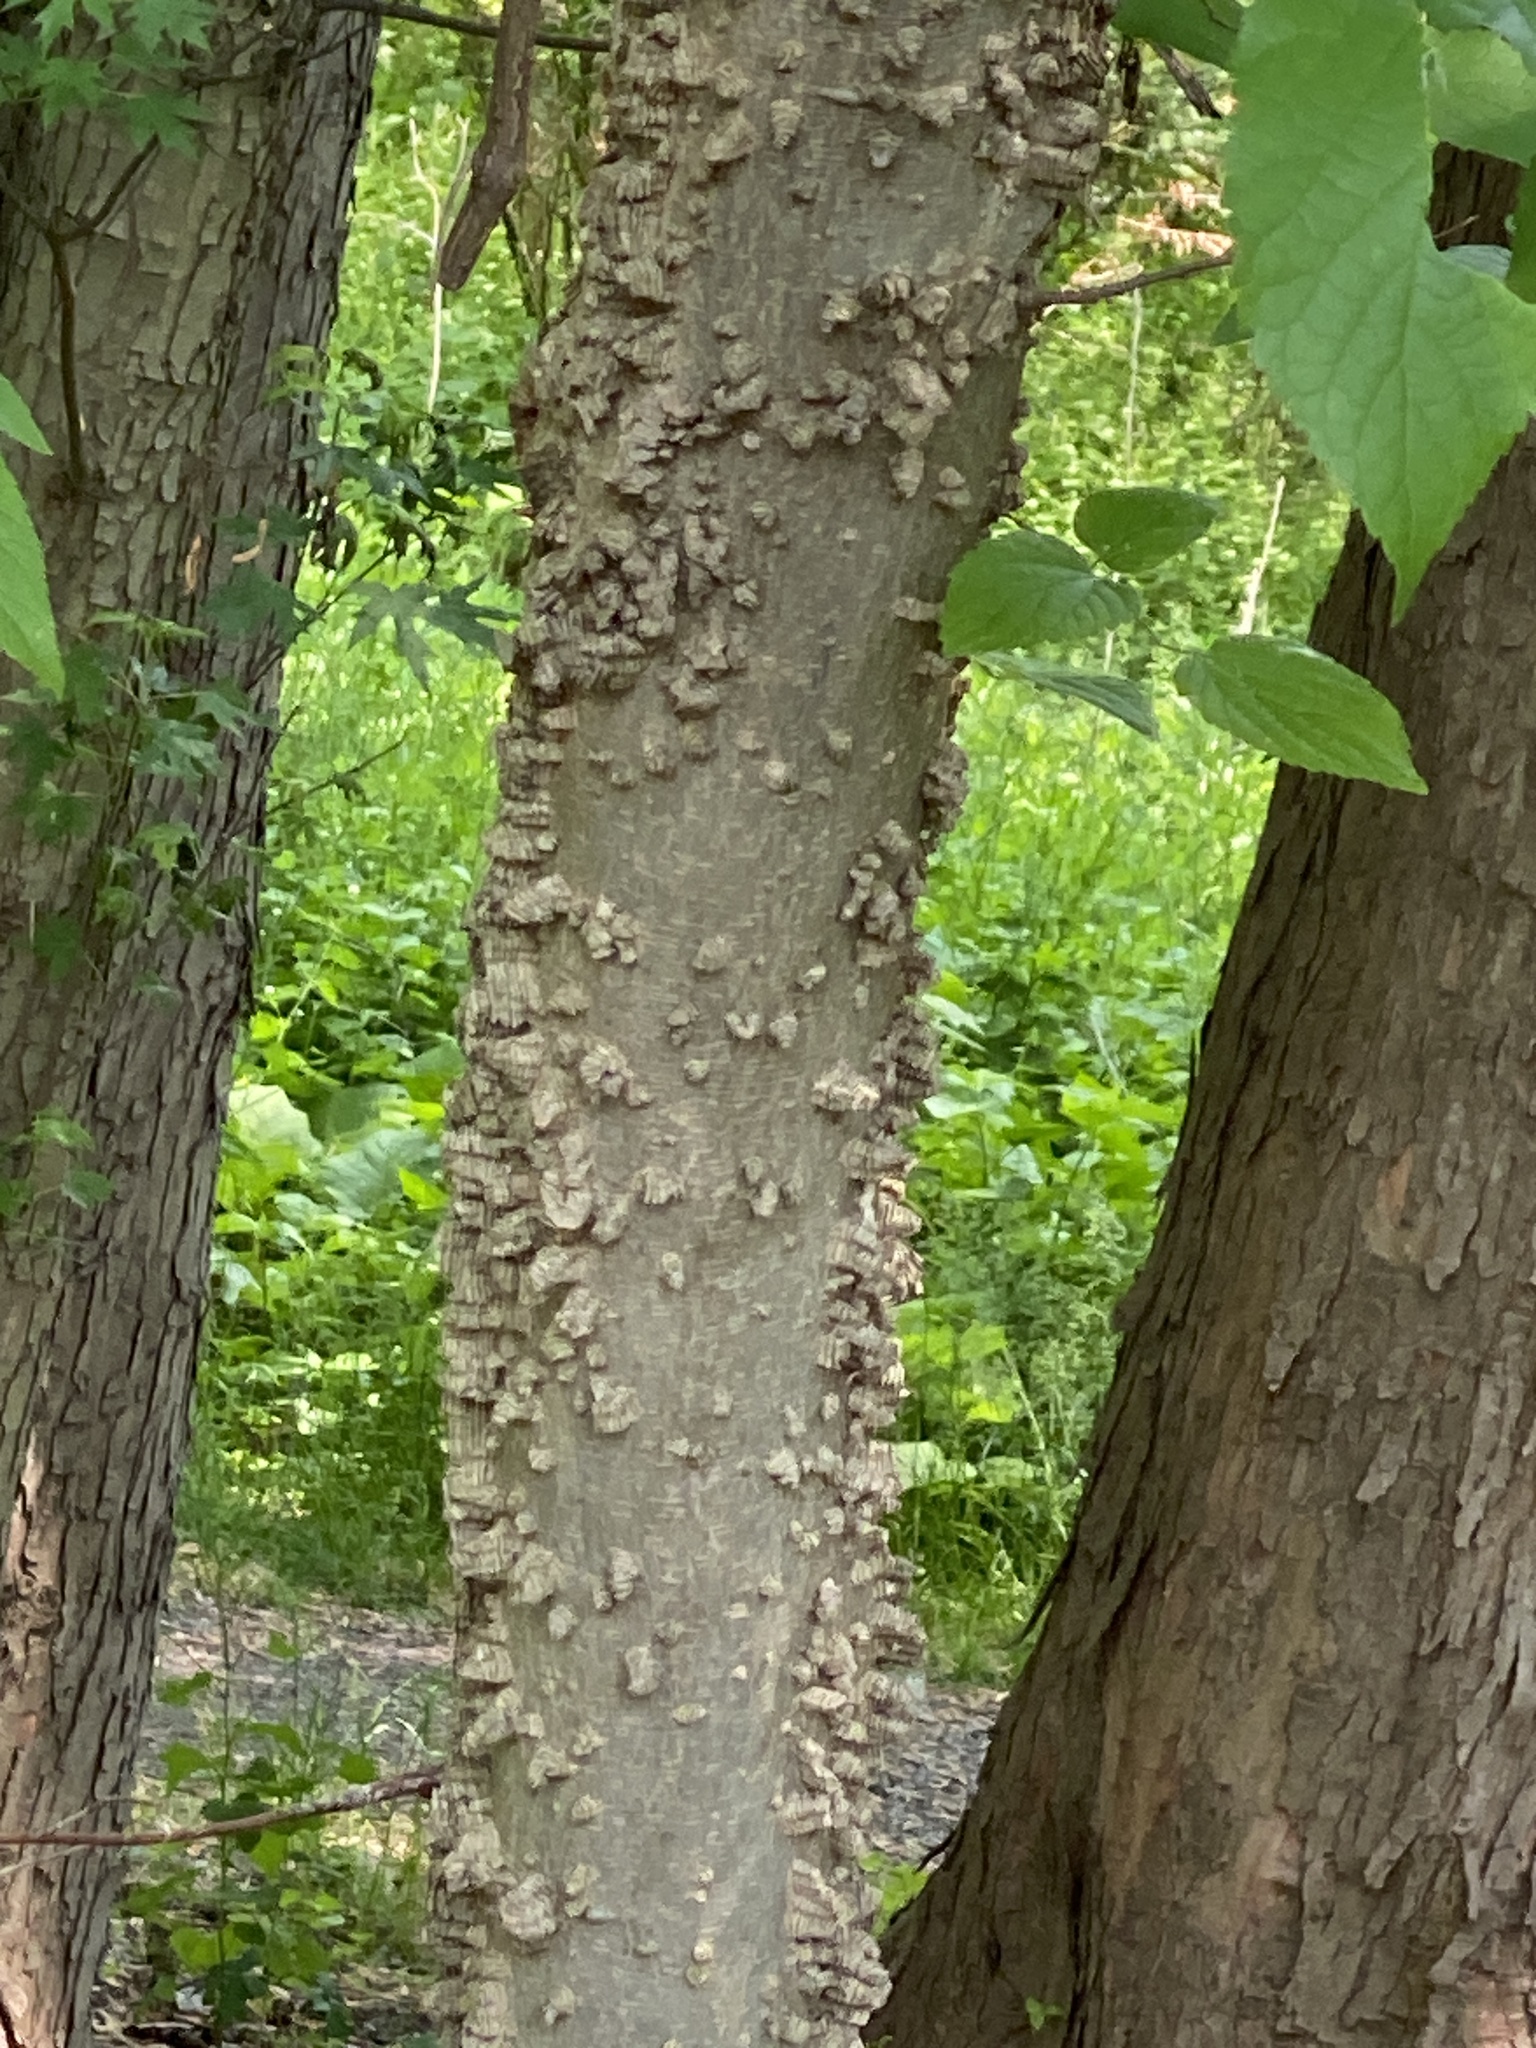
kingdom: Animalia
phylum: Arthropoda
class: Insecta
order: Hemiptera
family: Aphalaridae
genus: Pachypsylla
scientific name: Pachypsylla celtidismamma
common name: Hackberry nipplegall psyllid
